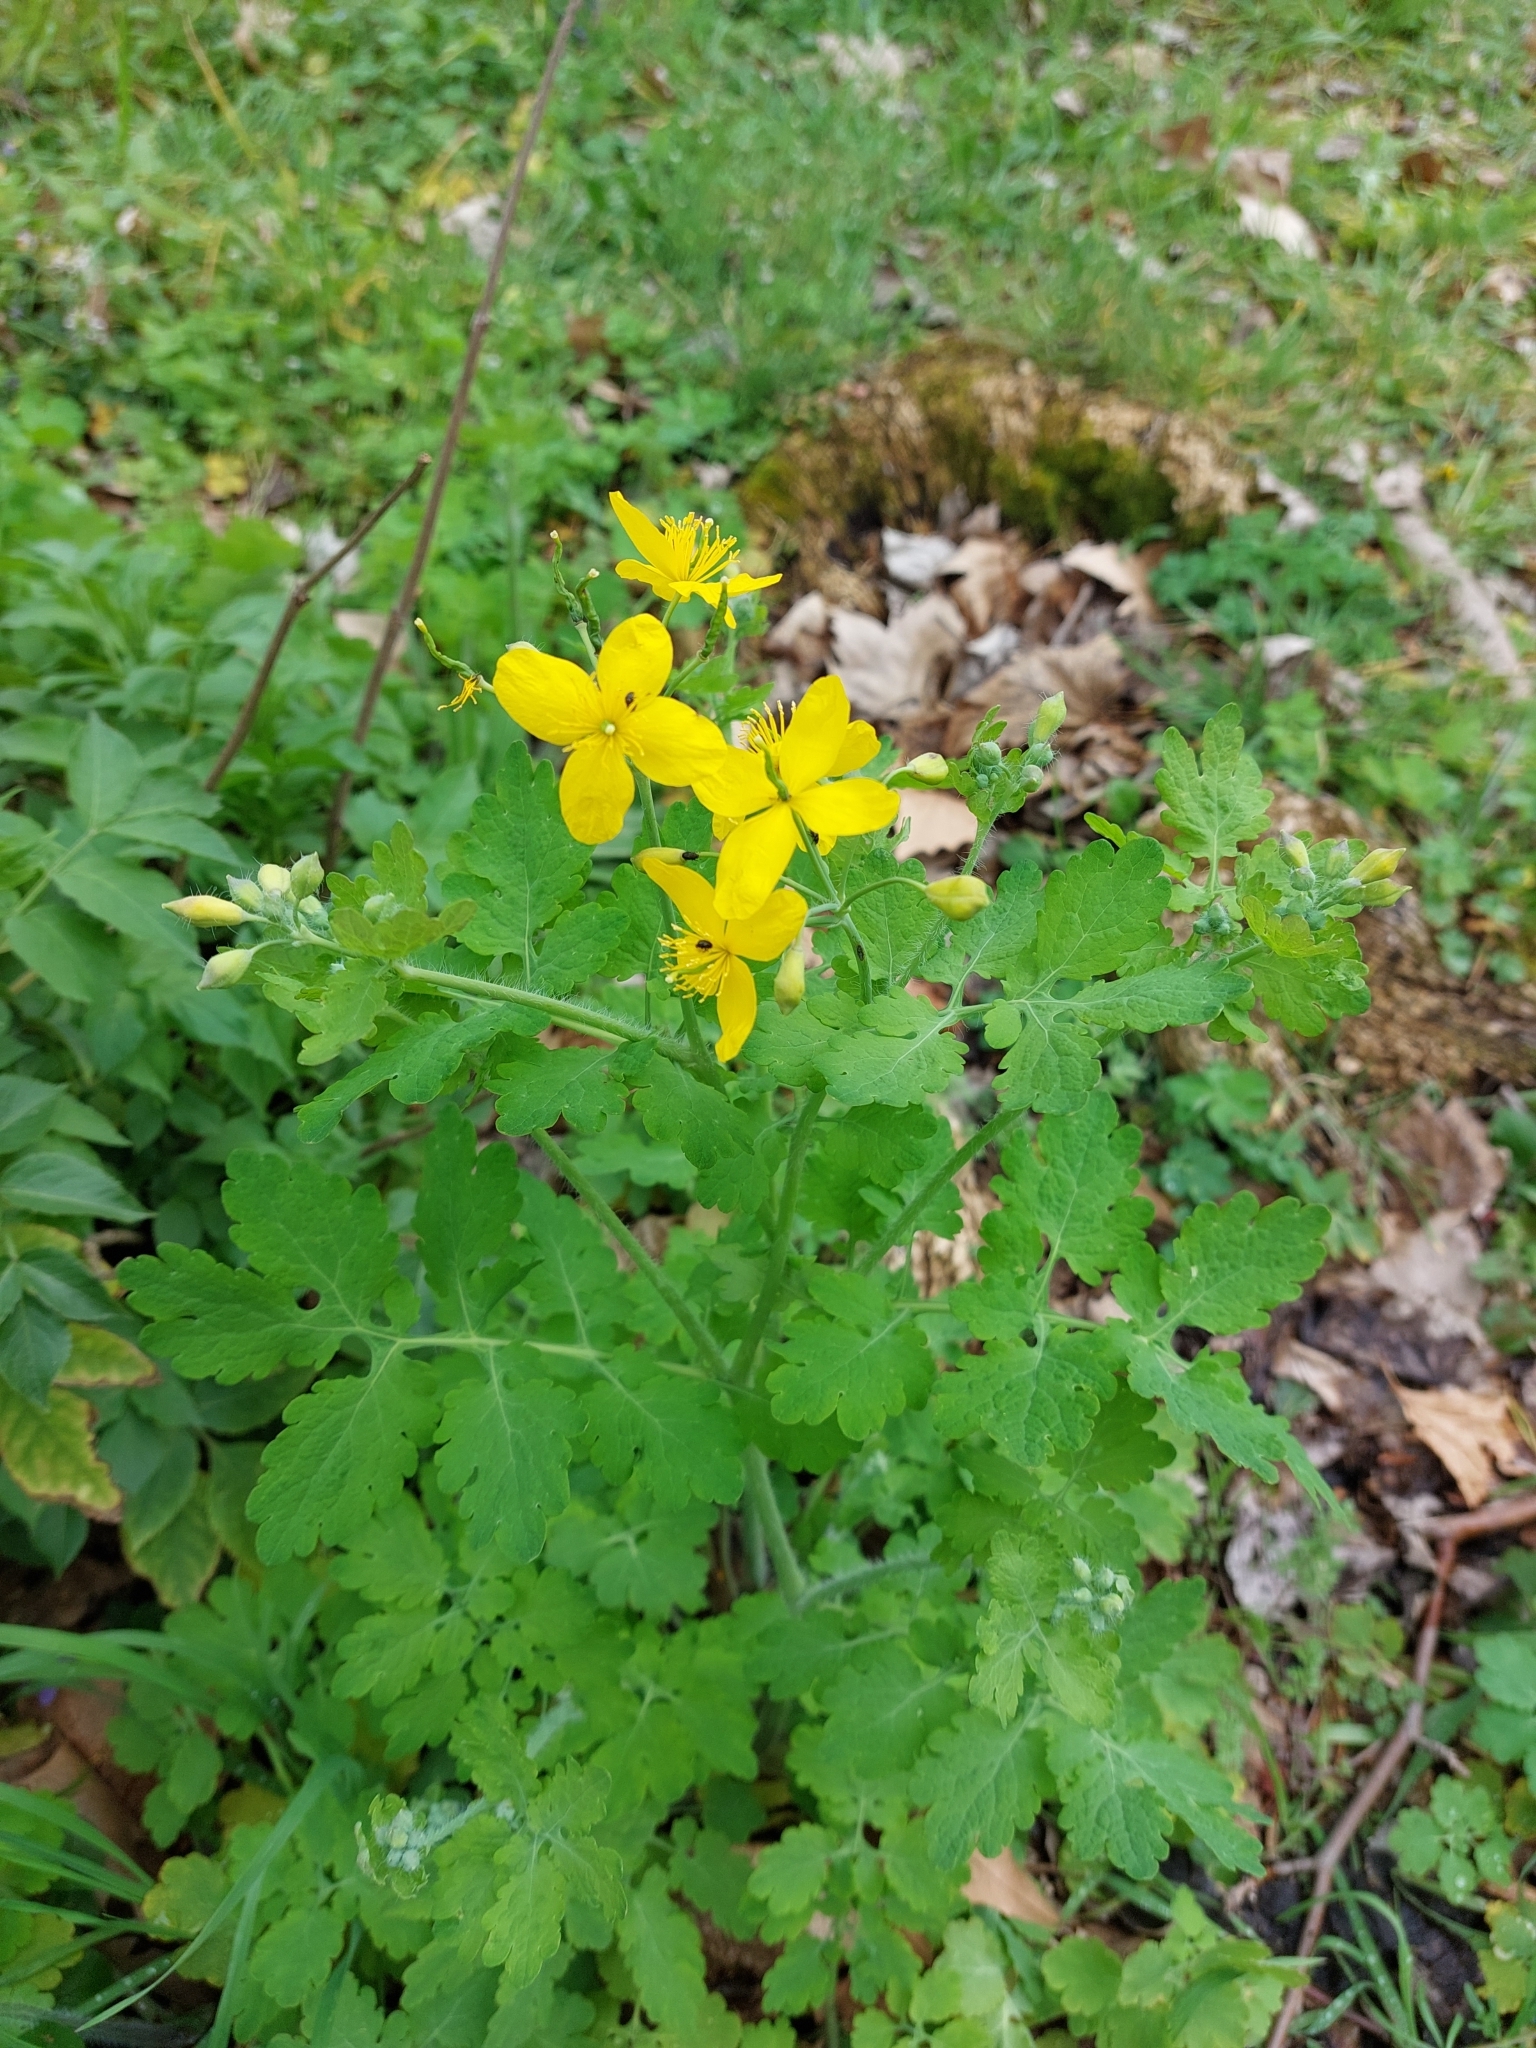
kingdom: Plantae
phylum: Tracheophyta
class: Magnoliopsida
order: Ranunculales
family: Papaveraceae
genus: Chelidonium
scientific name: Chelidonium majus
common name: Greater celandine
